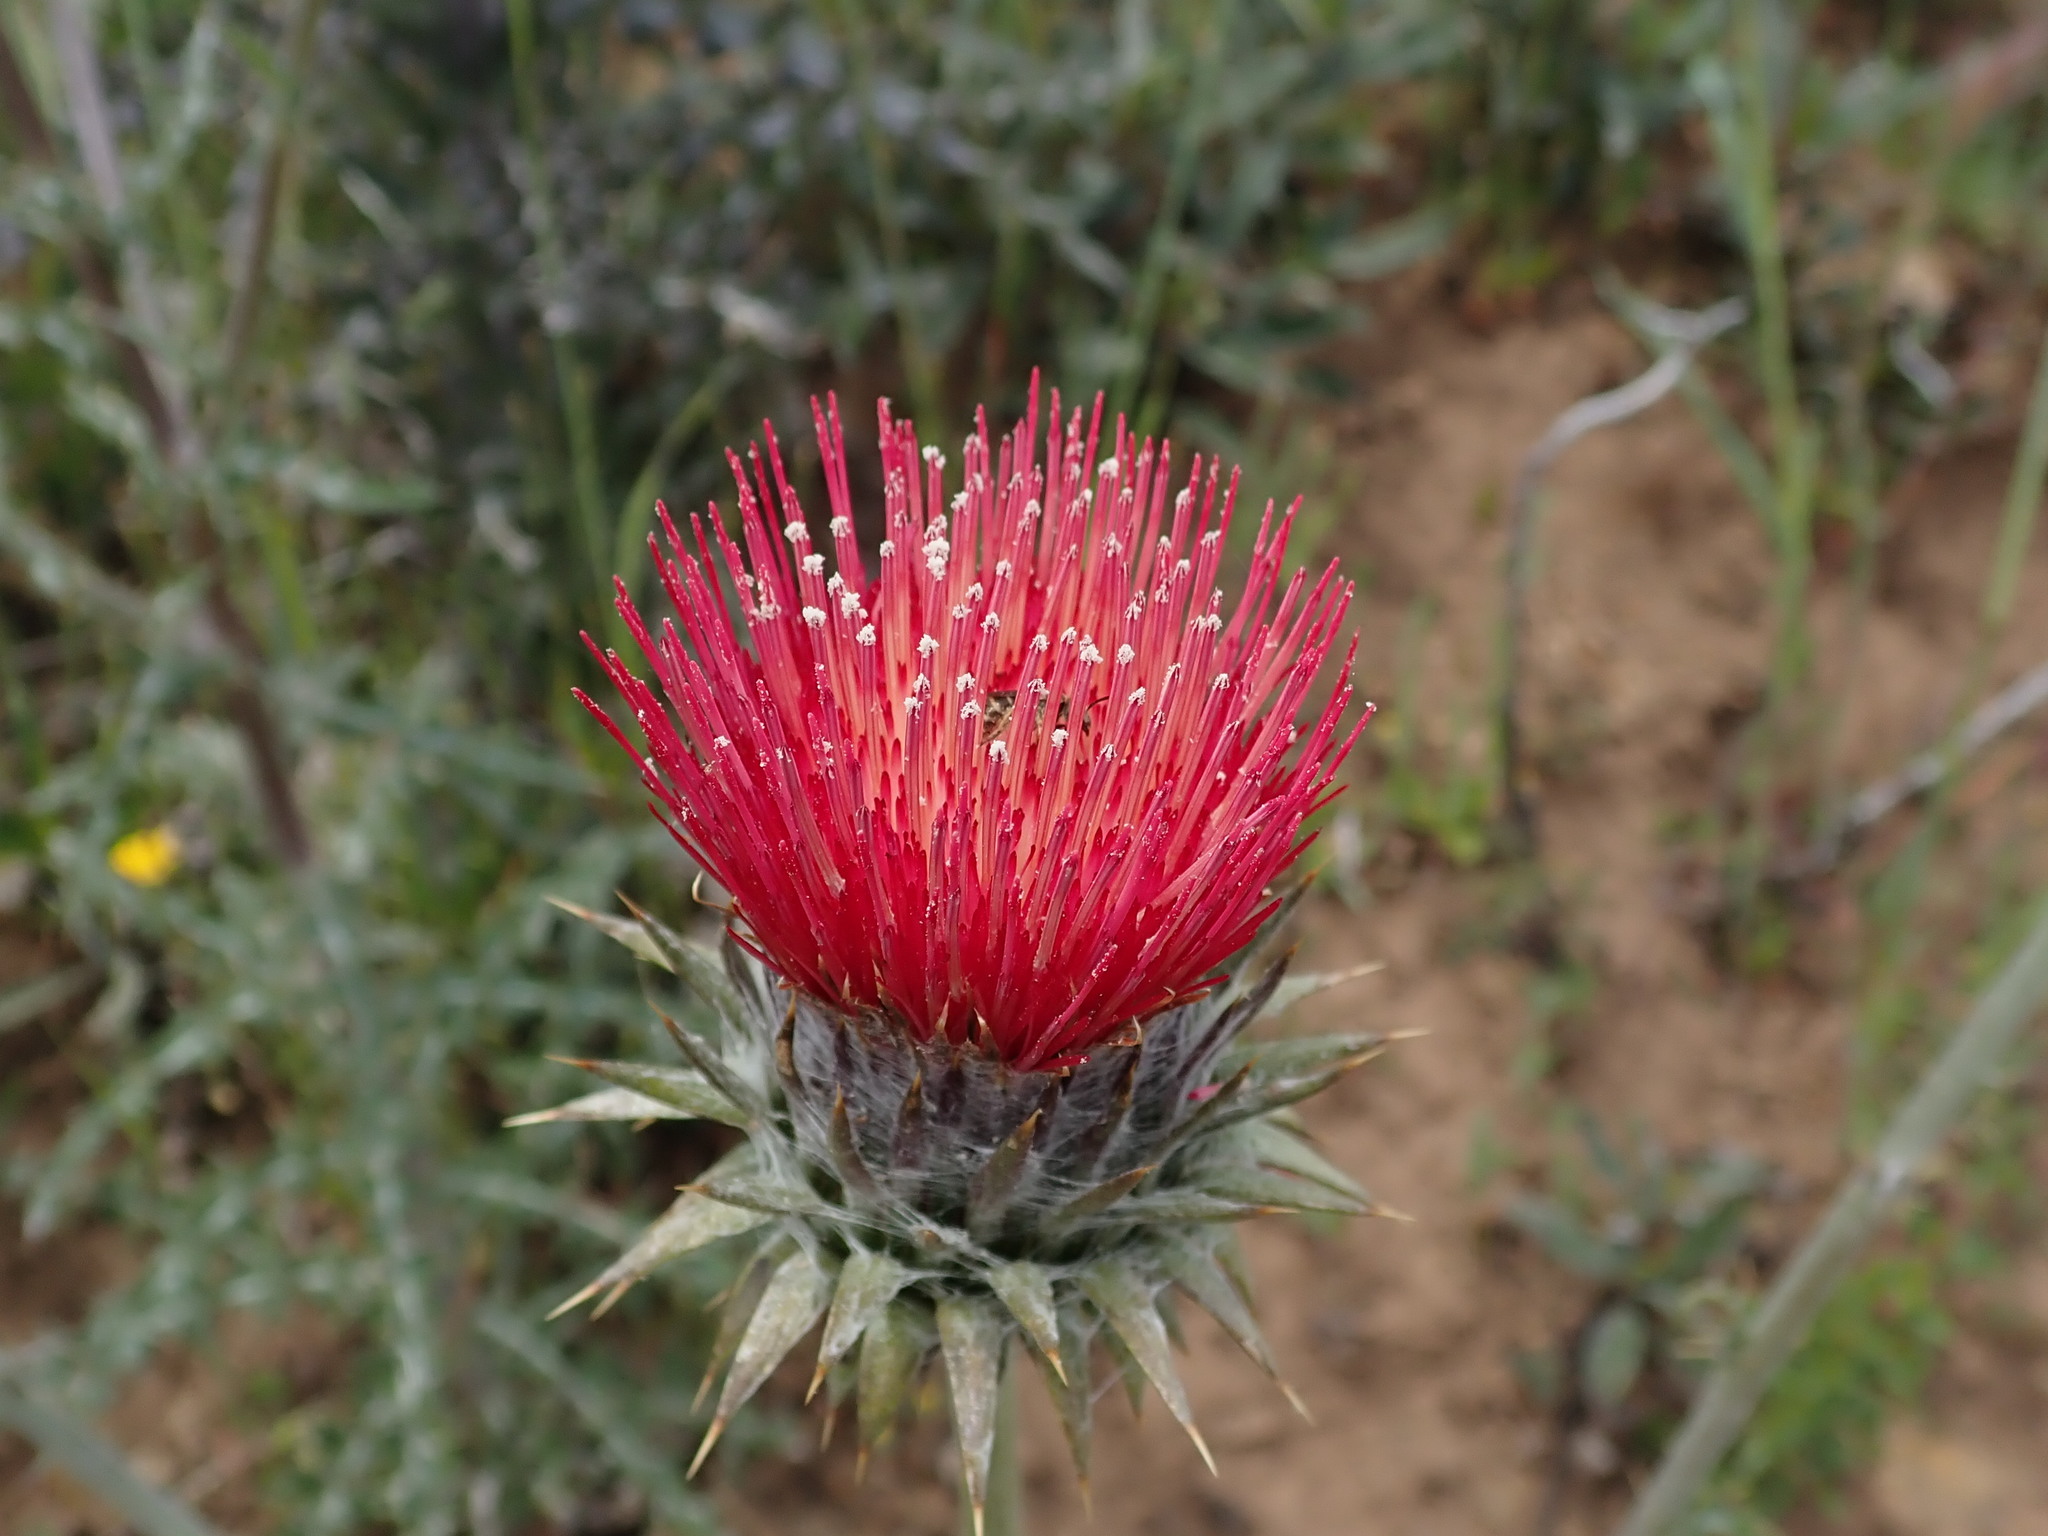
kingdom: Plantae
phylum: Tracheophyta
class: Magnoliopsida
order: Asterales
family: Asteraceae
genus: Cirsium
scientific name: Cirsium occidentale
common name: Western thistle
